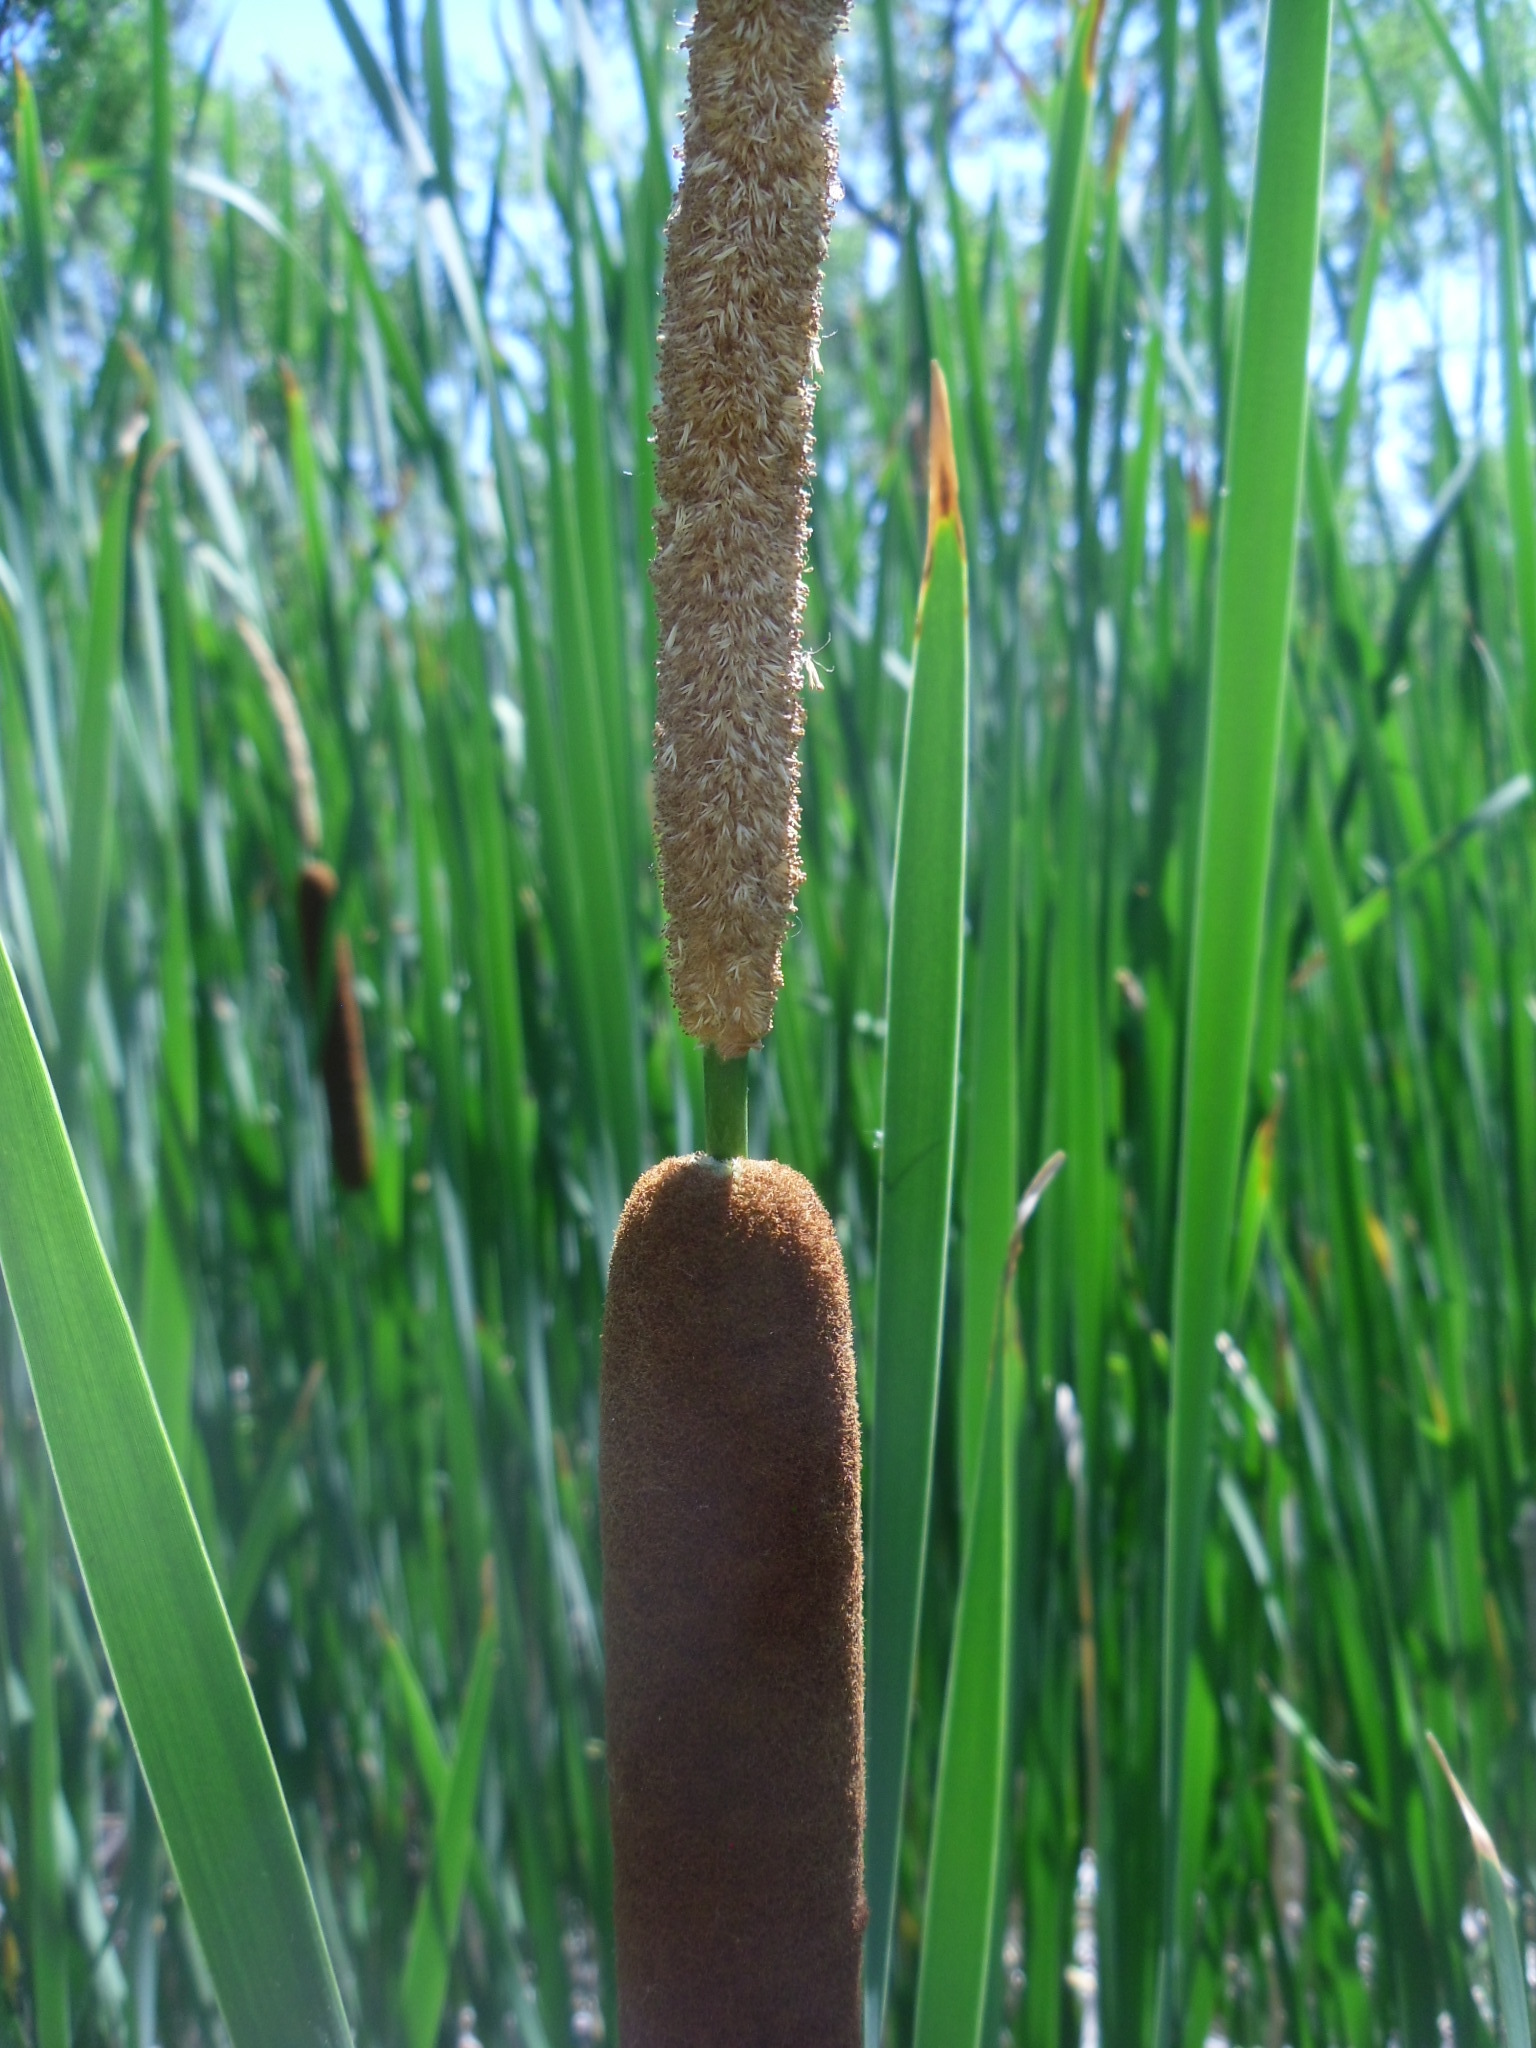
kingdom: Plantae
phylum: Tracheophyta
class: Liliopsida
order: Poales
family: Typhaceae
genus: Typha
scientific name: Typha angustifolia
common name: Lesser bulrush
